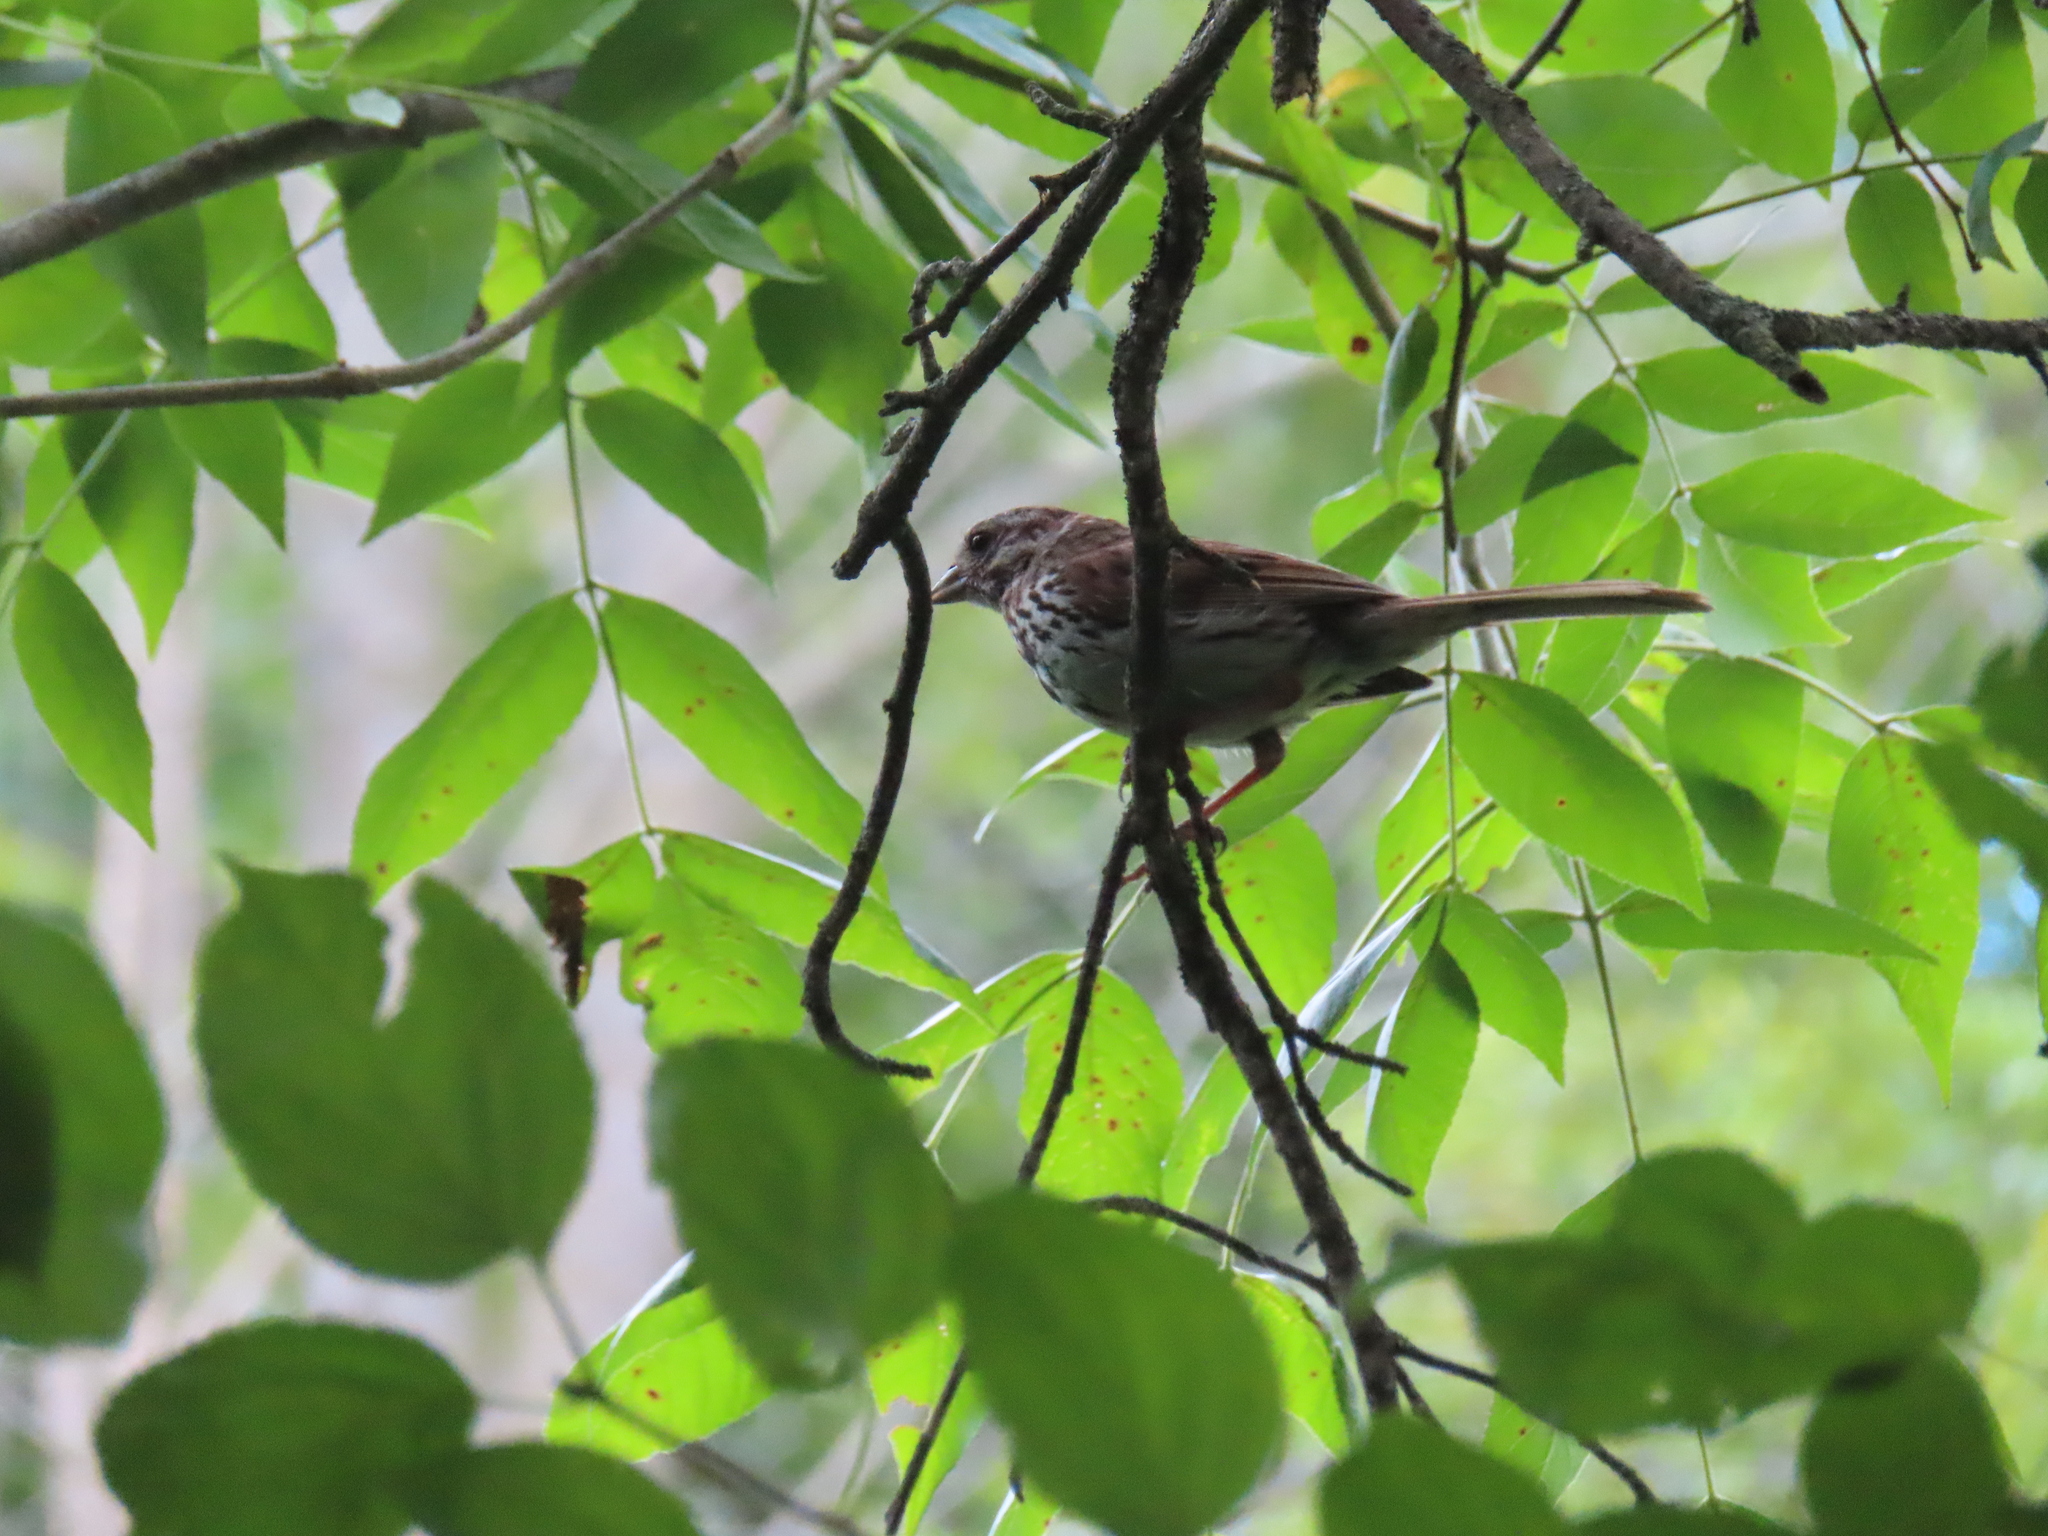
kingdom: Animalia
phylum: Chordata
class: Aves
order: Passeriformes
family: Passerellidae
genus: Melospiza
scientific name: Melospiza melodia
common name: Song sparrow
